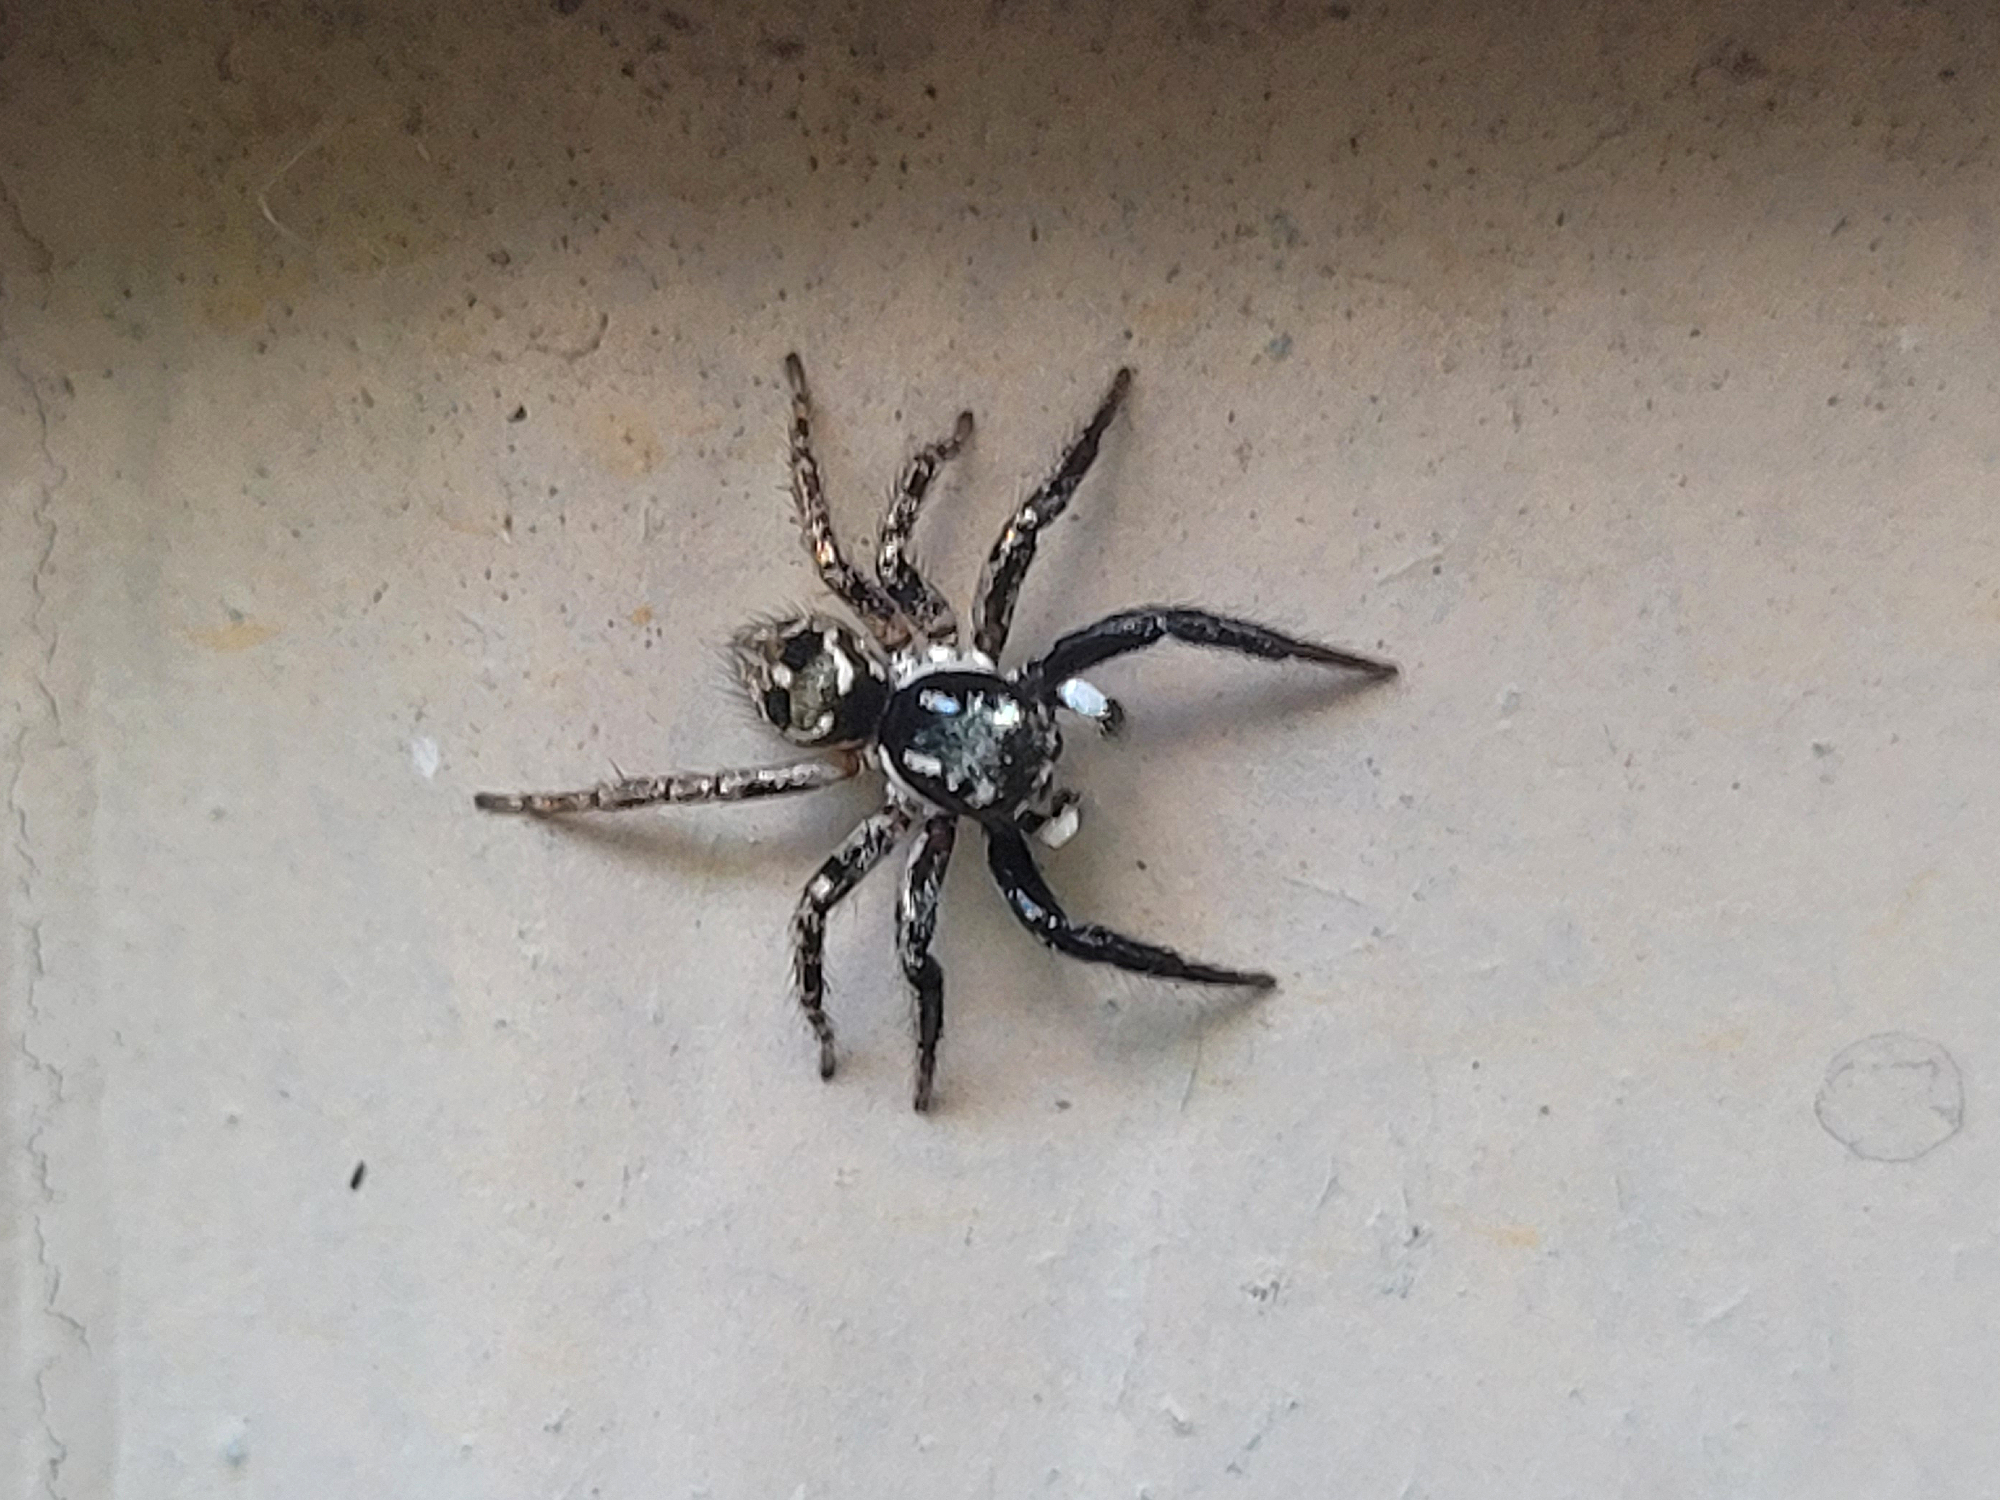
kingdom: Animalia
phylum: Arthropoda
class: Arachnida
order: Araneae
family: Salticidae
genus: Anasaitis
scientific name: Anasaitis canosa
